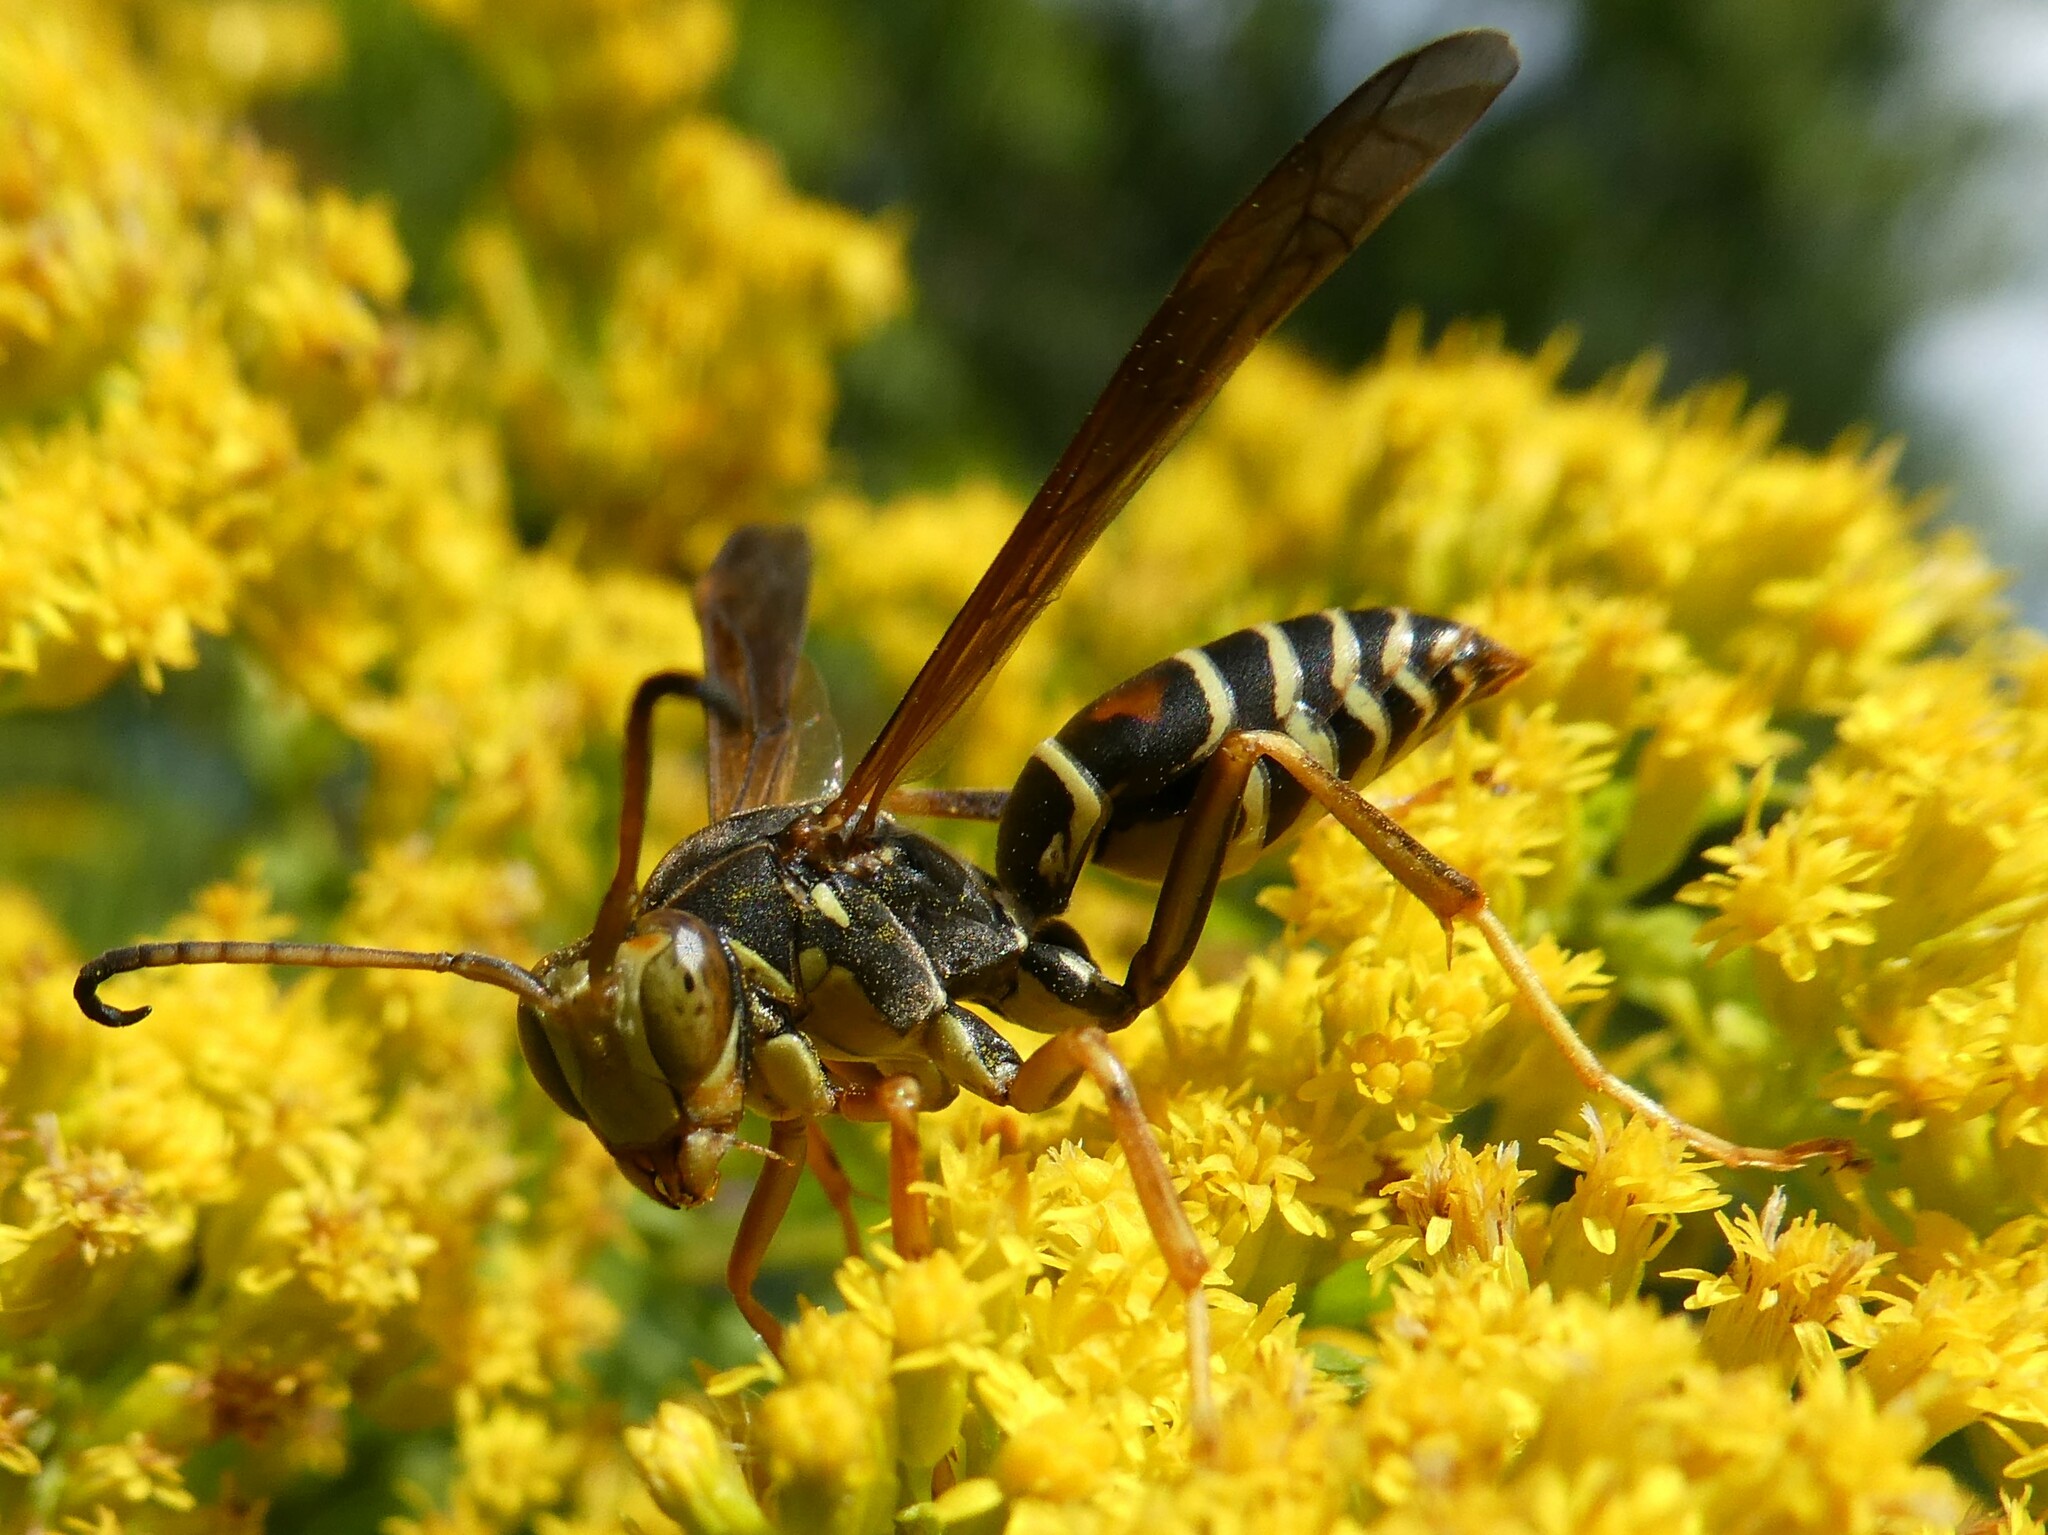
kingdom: Animalia
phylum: Arthropoda
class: Insecta
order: Hymenoptera
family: Eumenidae
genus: Polistes
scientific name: Polistes fuscatus
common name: Dark paper wasp
